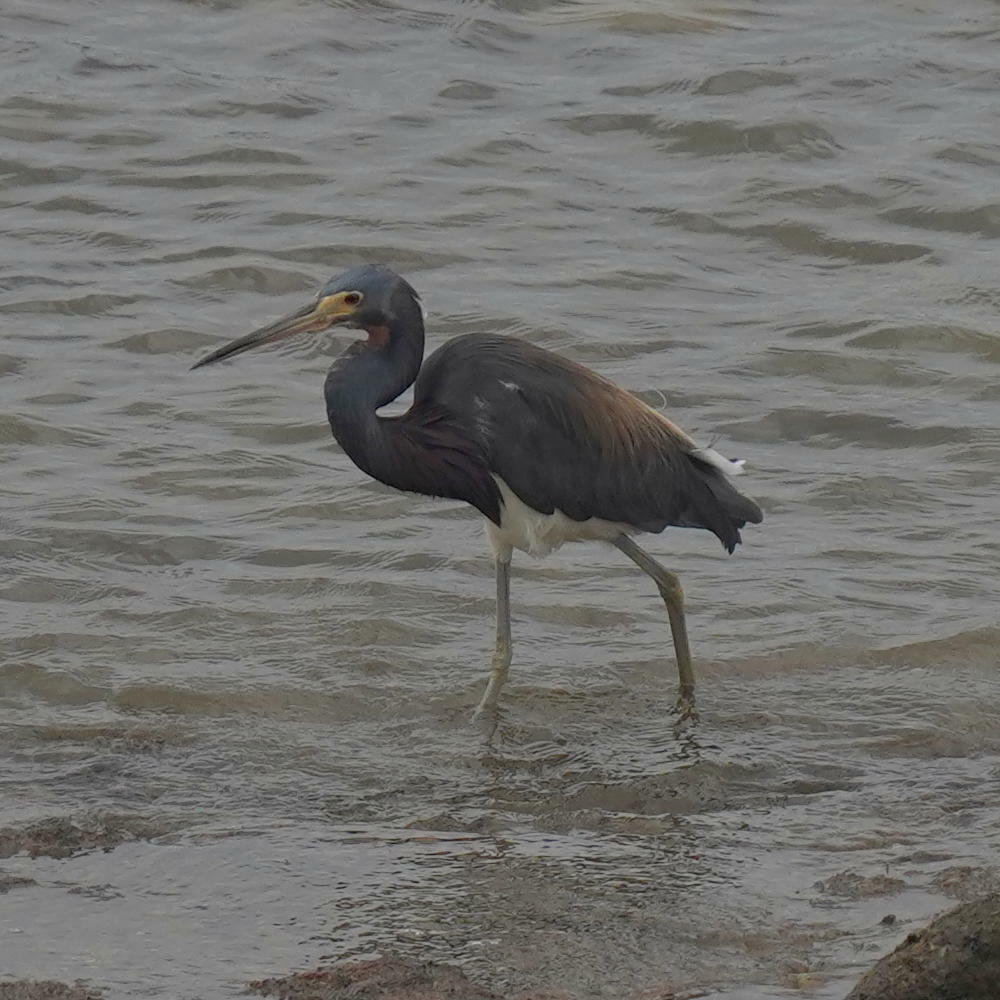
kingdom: Animalia
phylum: Chordata
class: Aves
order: Pelecaniformes
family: Ardeidae
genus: Egretta
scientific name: Egretta tricolor
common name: Tricolored heron
